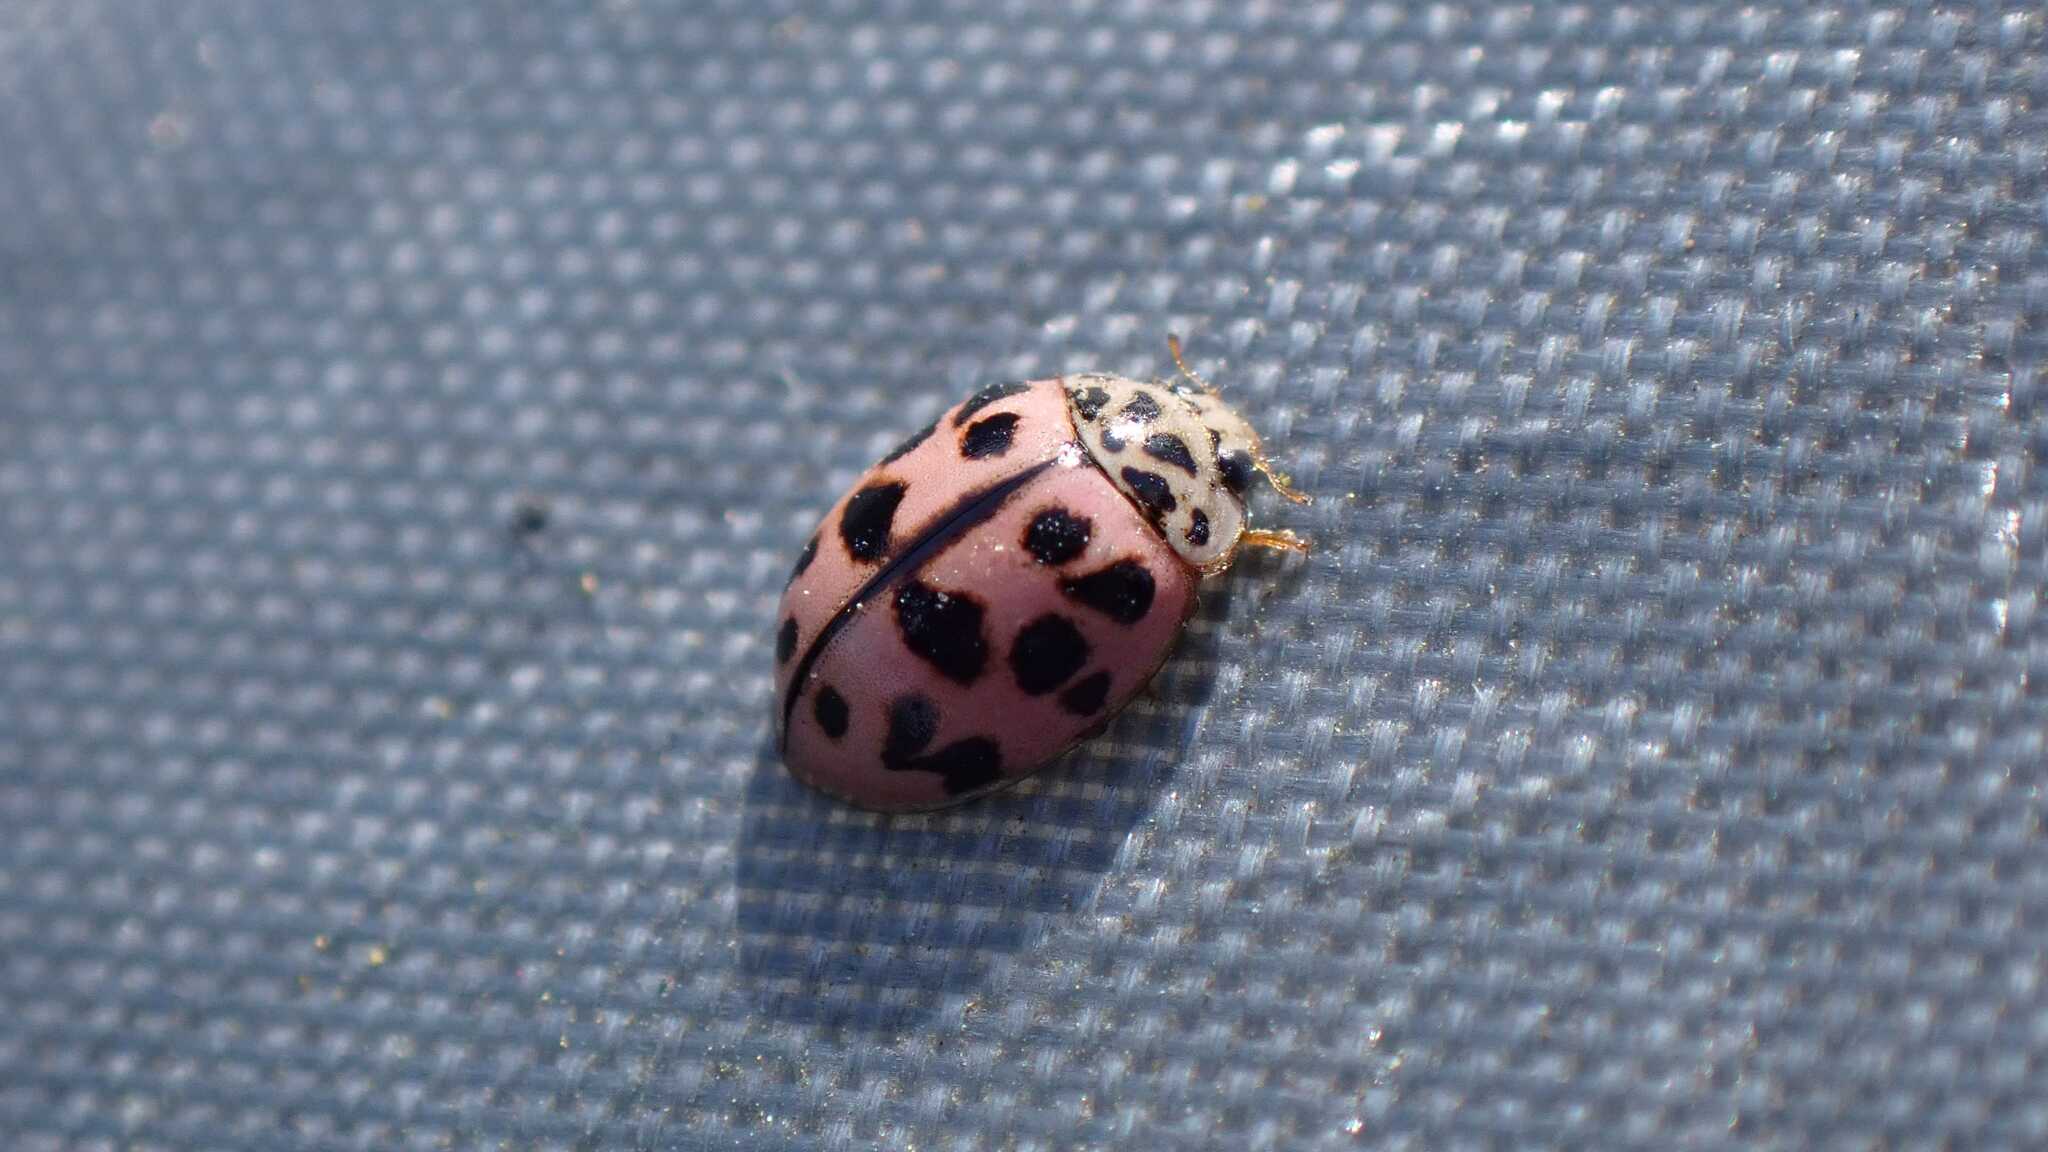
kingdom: Animalia
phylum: Arthropoda
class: Insecta
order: Coleoptera
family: Coccinellidae
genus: Oenopia
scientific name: Oenopia conglobata
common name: Ladybird beetle
